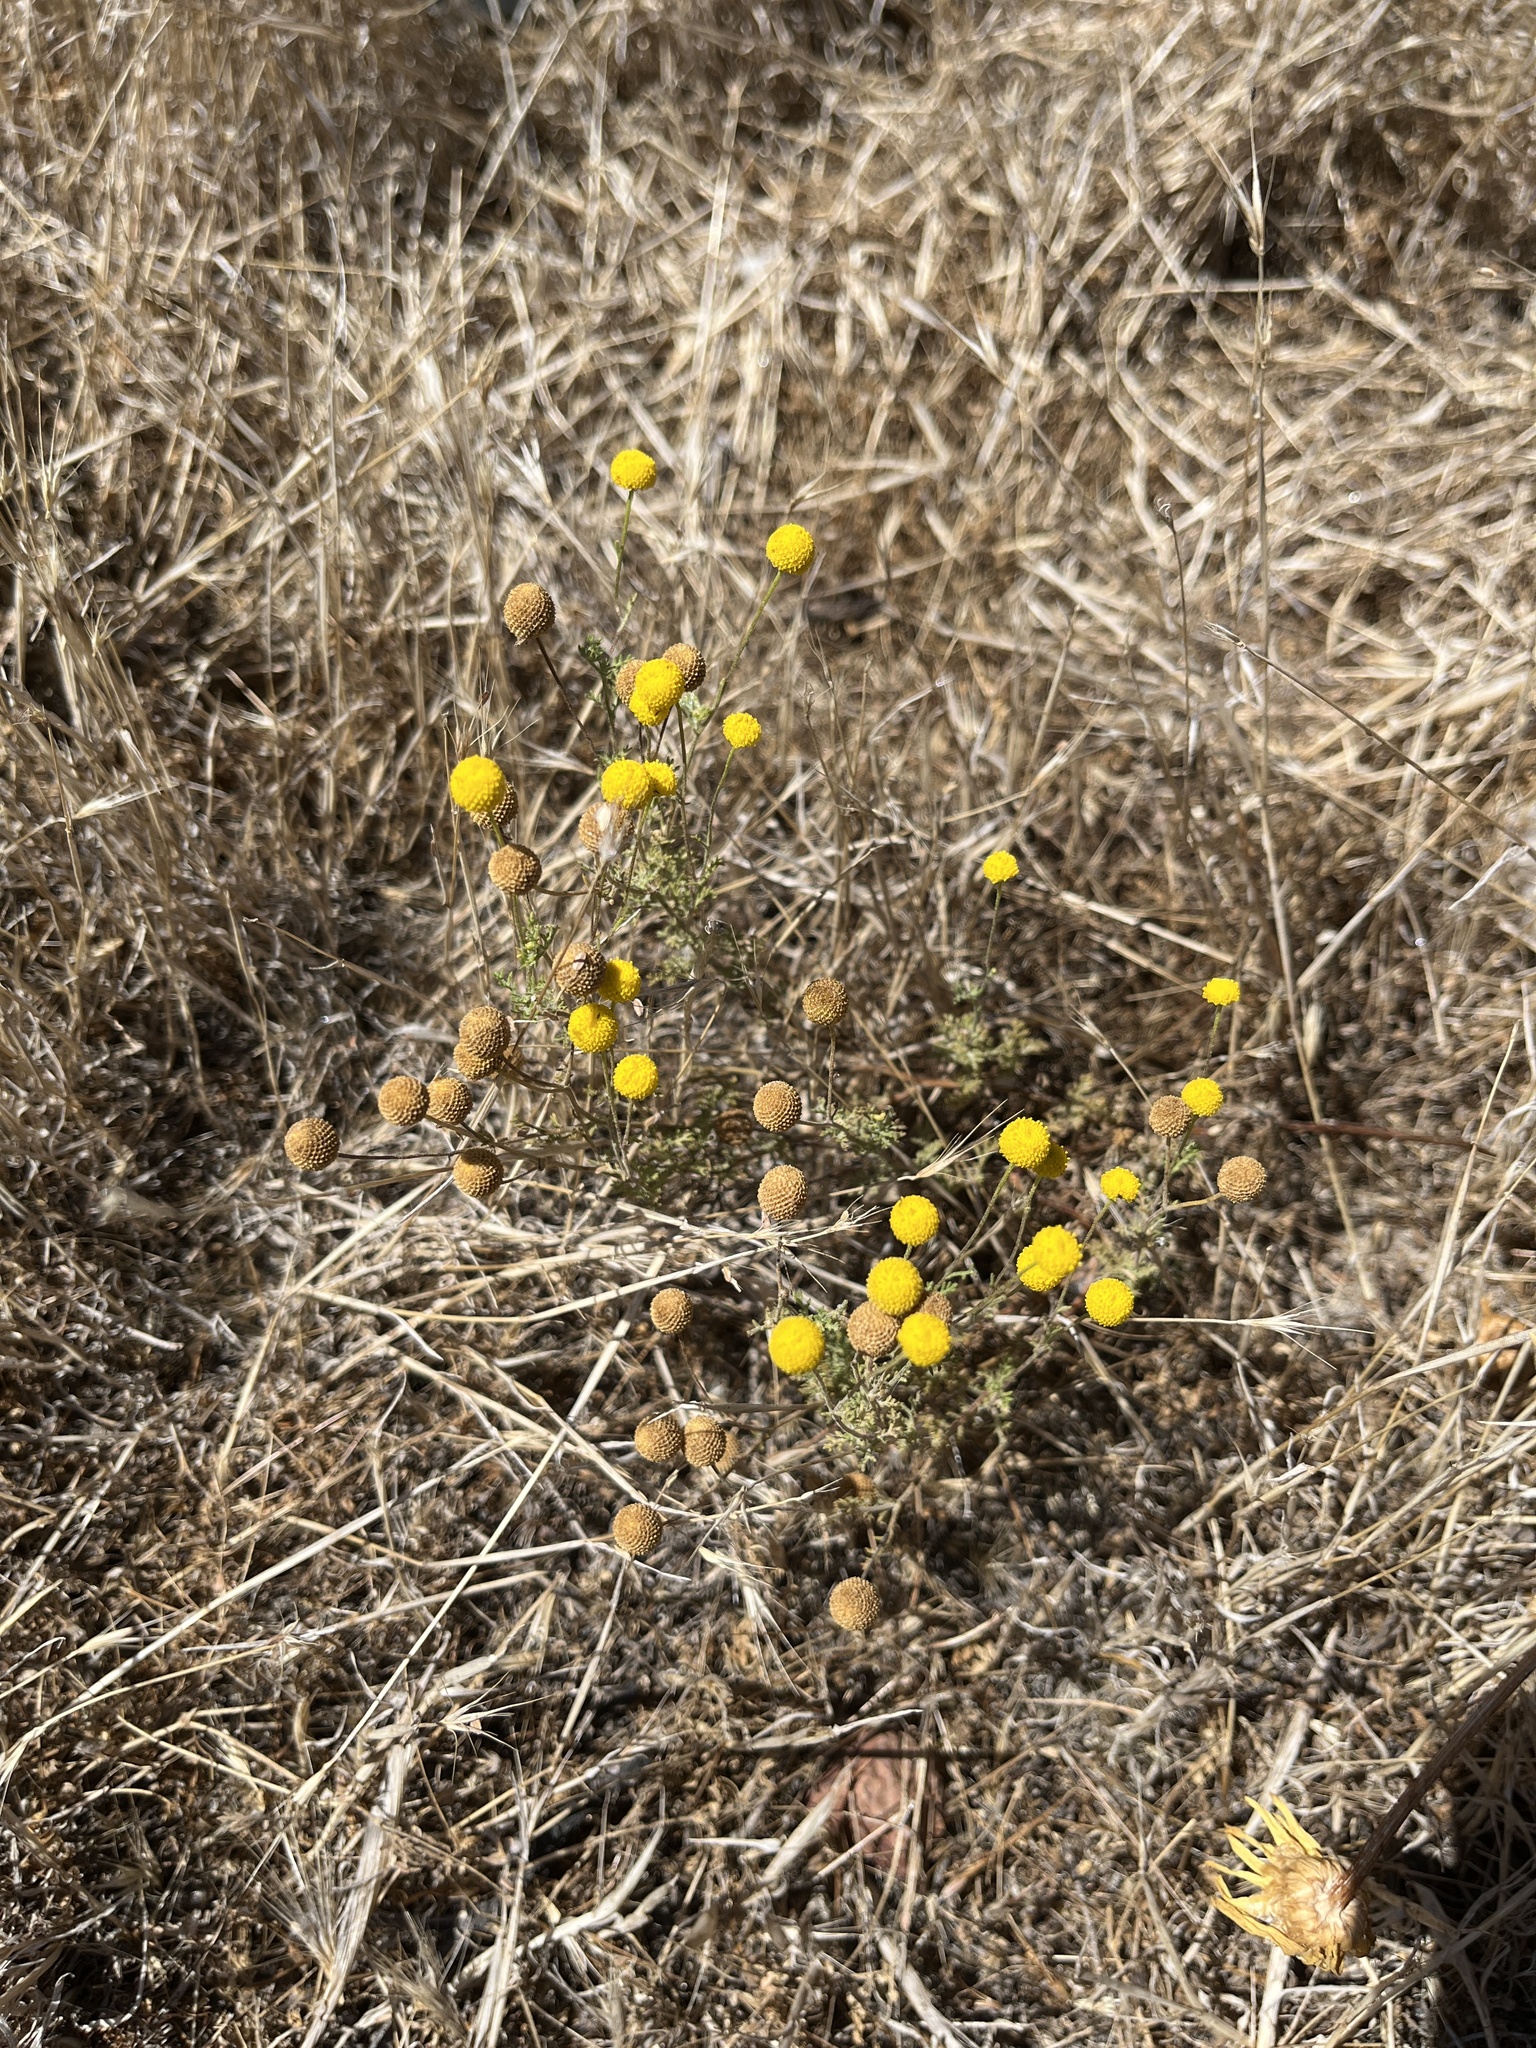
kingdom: Plantae
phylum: Tracheophyta
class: Magnoliopsida
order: Asterales
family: Asteraceae
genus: Oncosiphon
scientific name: Oncosiphon pilulifer
